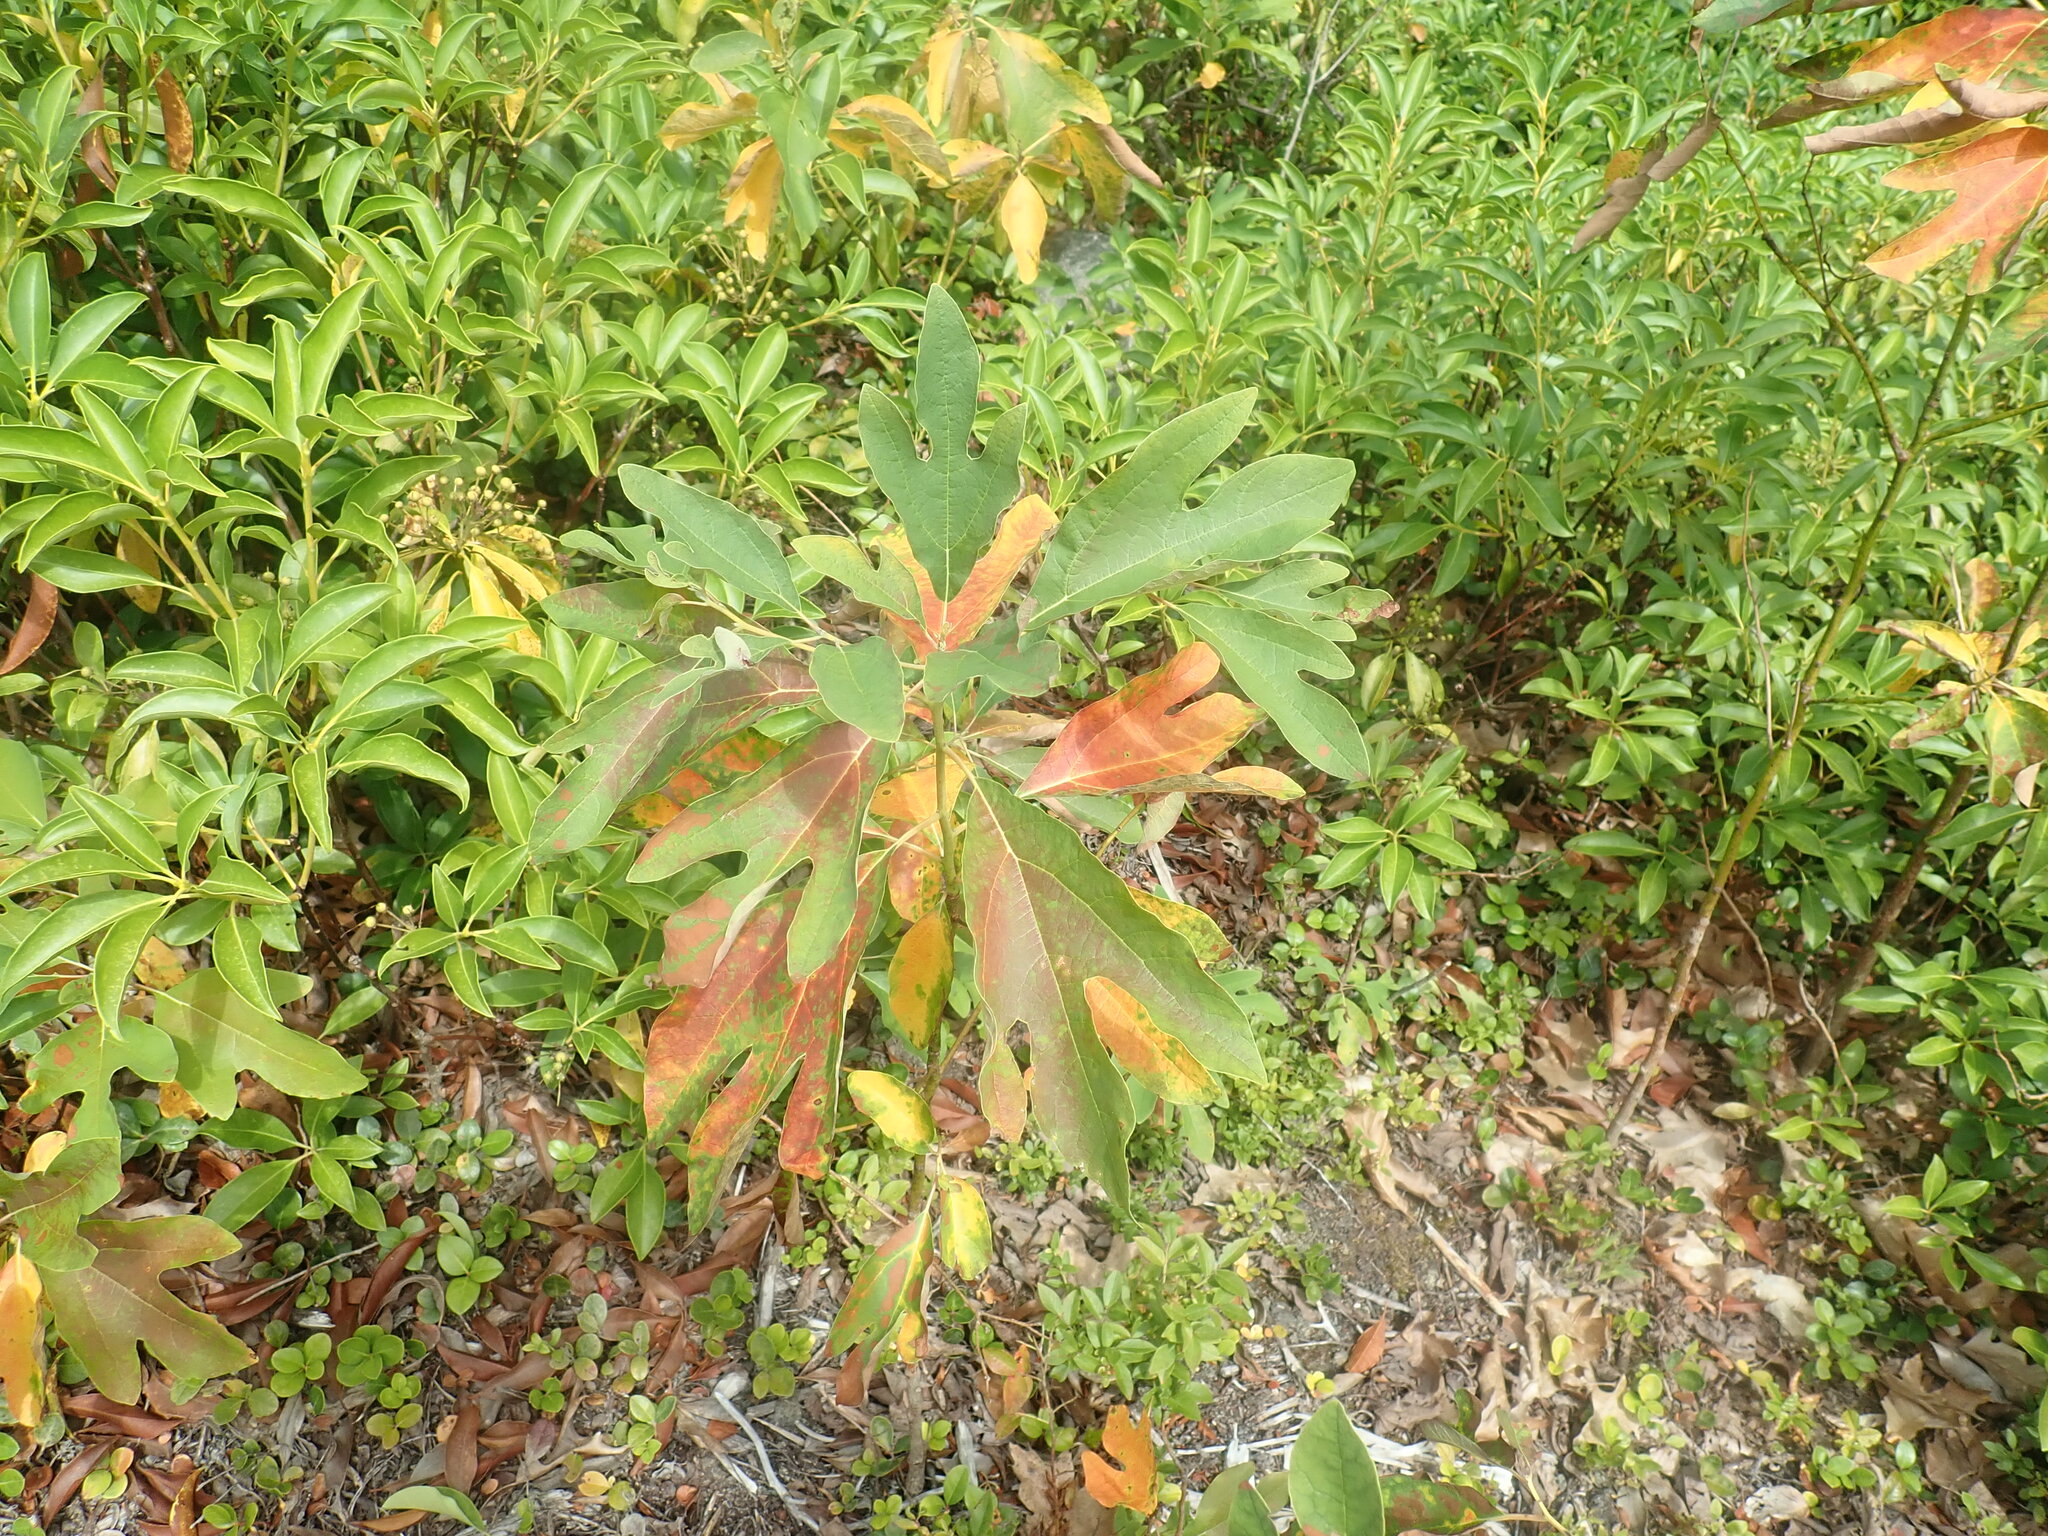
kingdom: Plantae
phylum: Tracheophyta
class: Magnoliopsida
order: Laurales
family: Lauraceae
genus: Sassafras
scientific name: Sassafras albidum
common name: Sassafras
